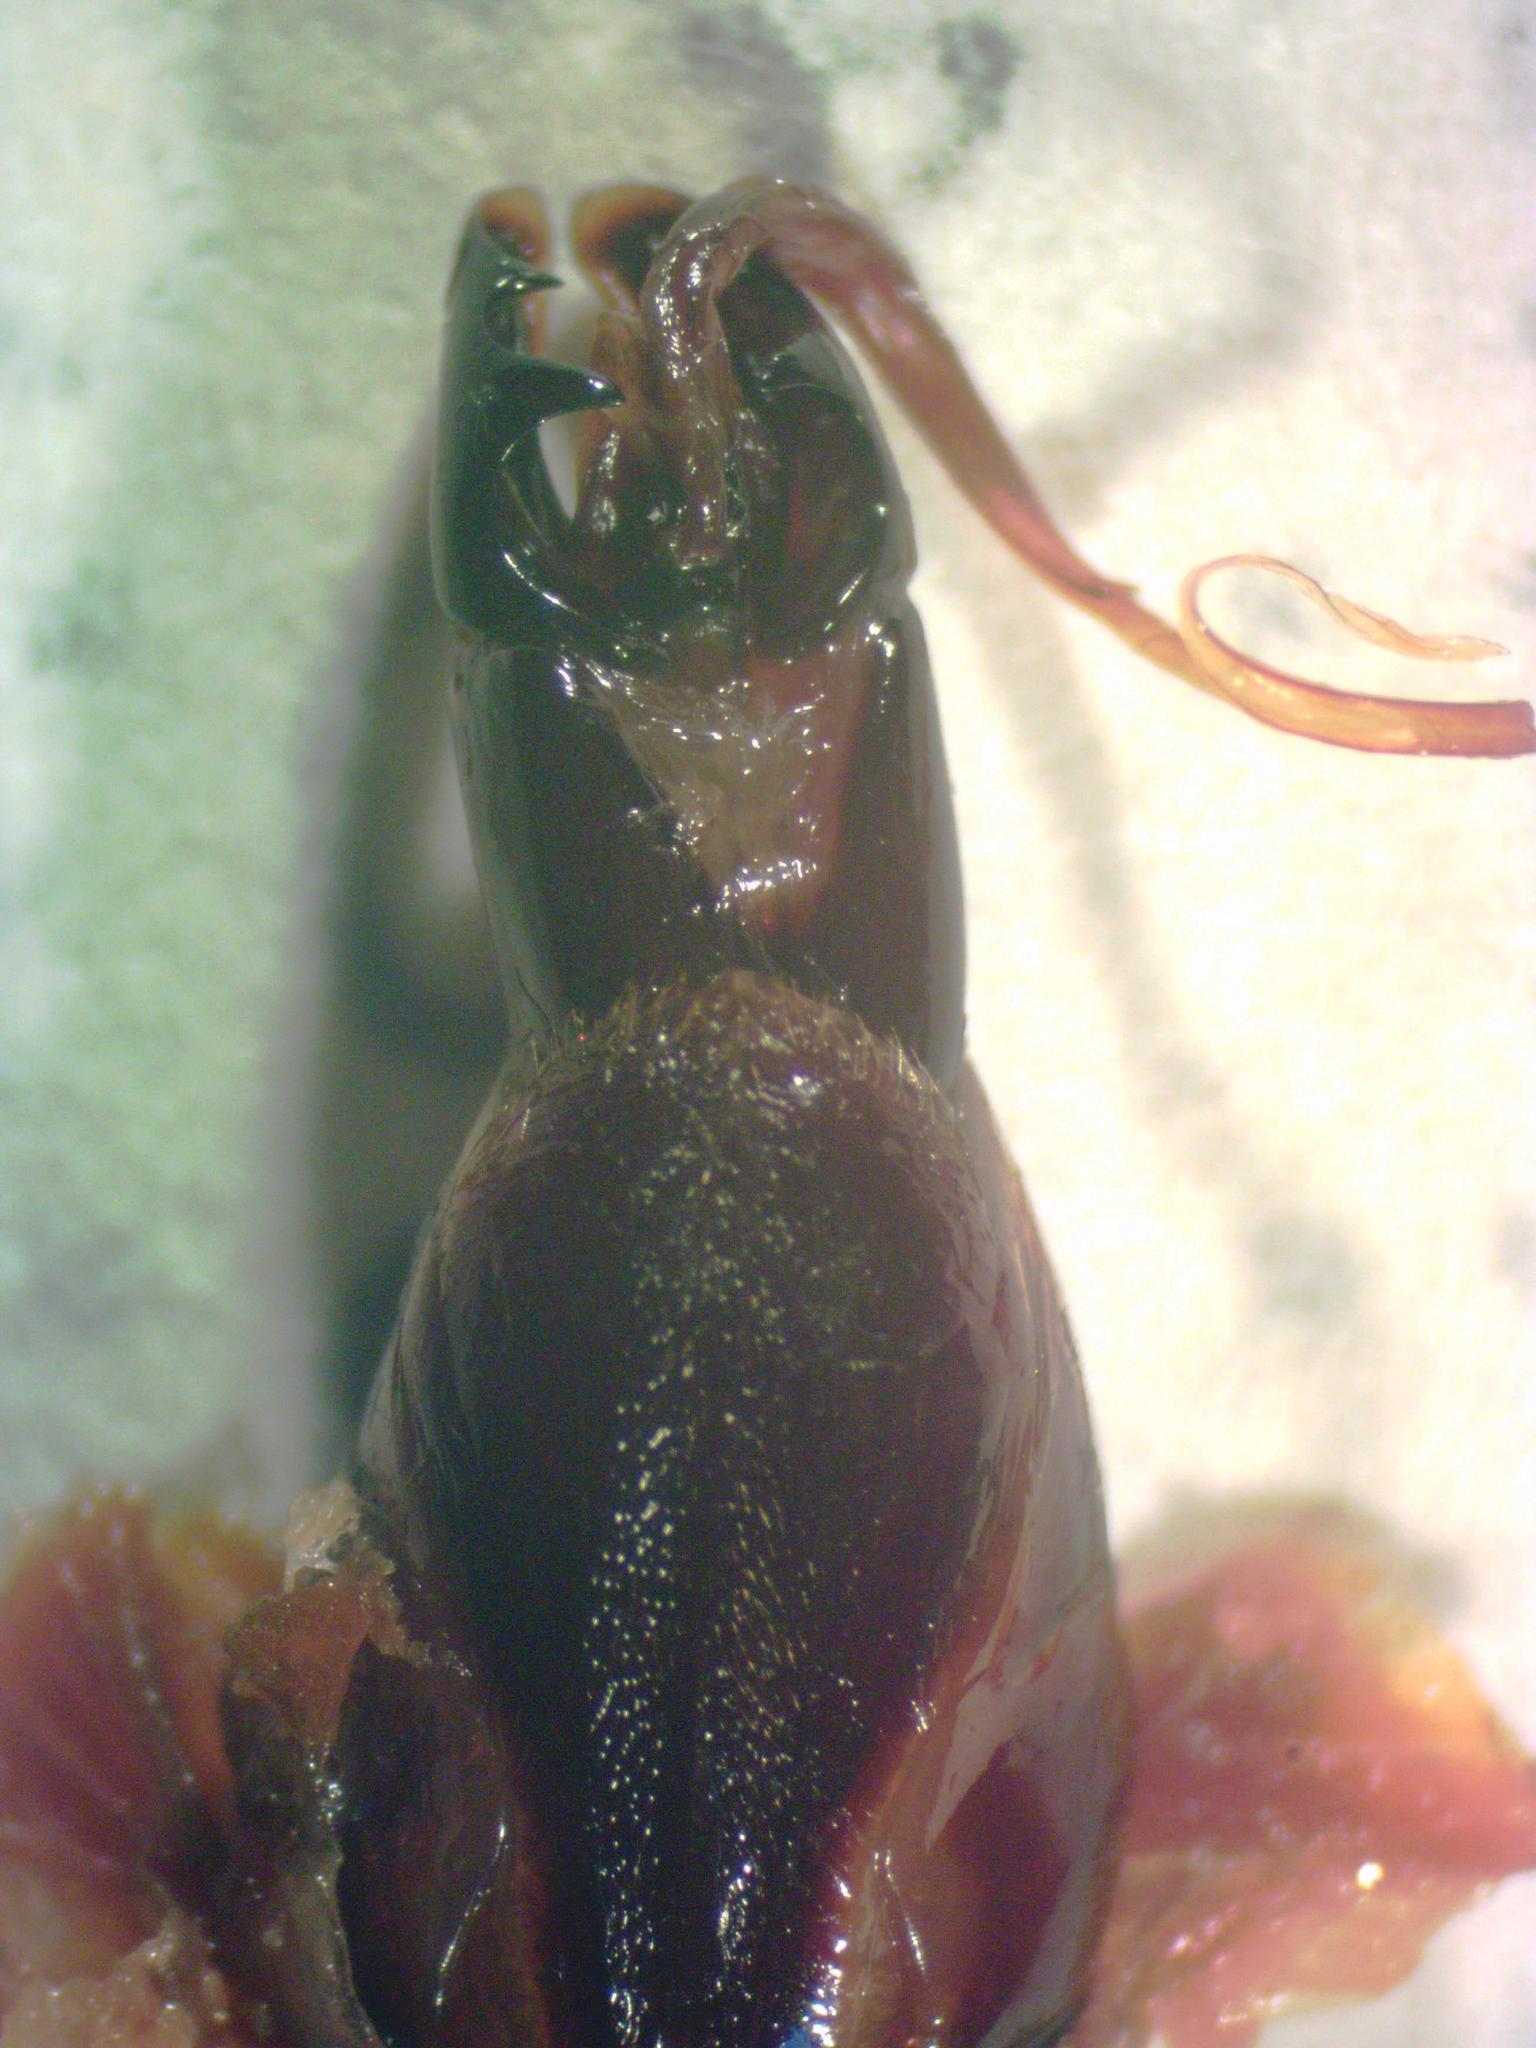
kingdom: Animalia
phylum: Arthropoda
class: Insecta
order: Coleoptera
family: Lucanidae
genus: Serrognathus
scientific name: Serrognathus titanus
